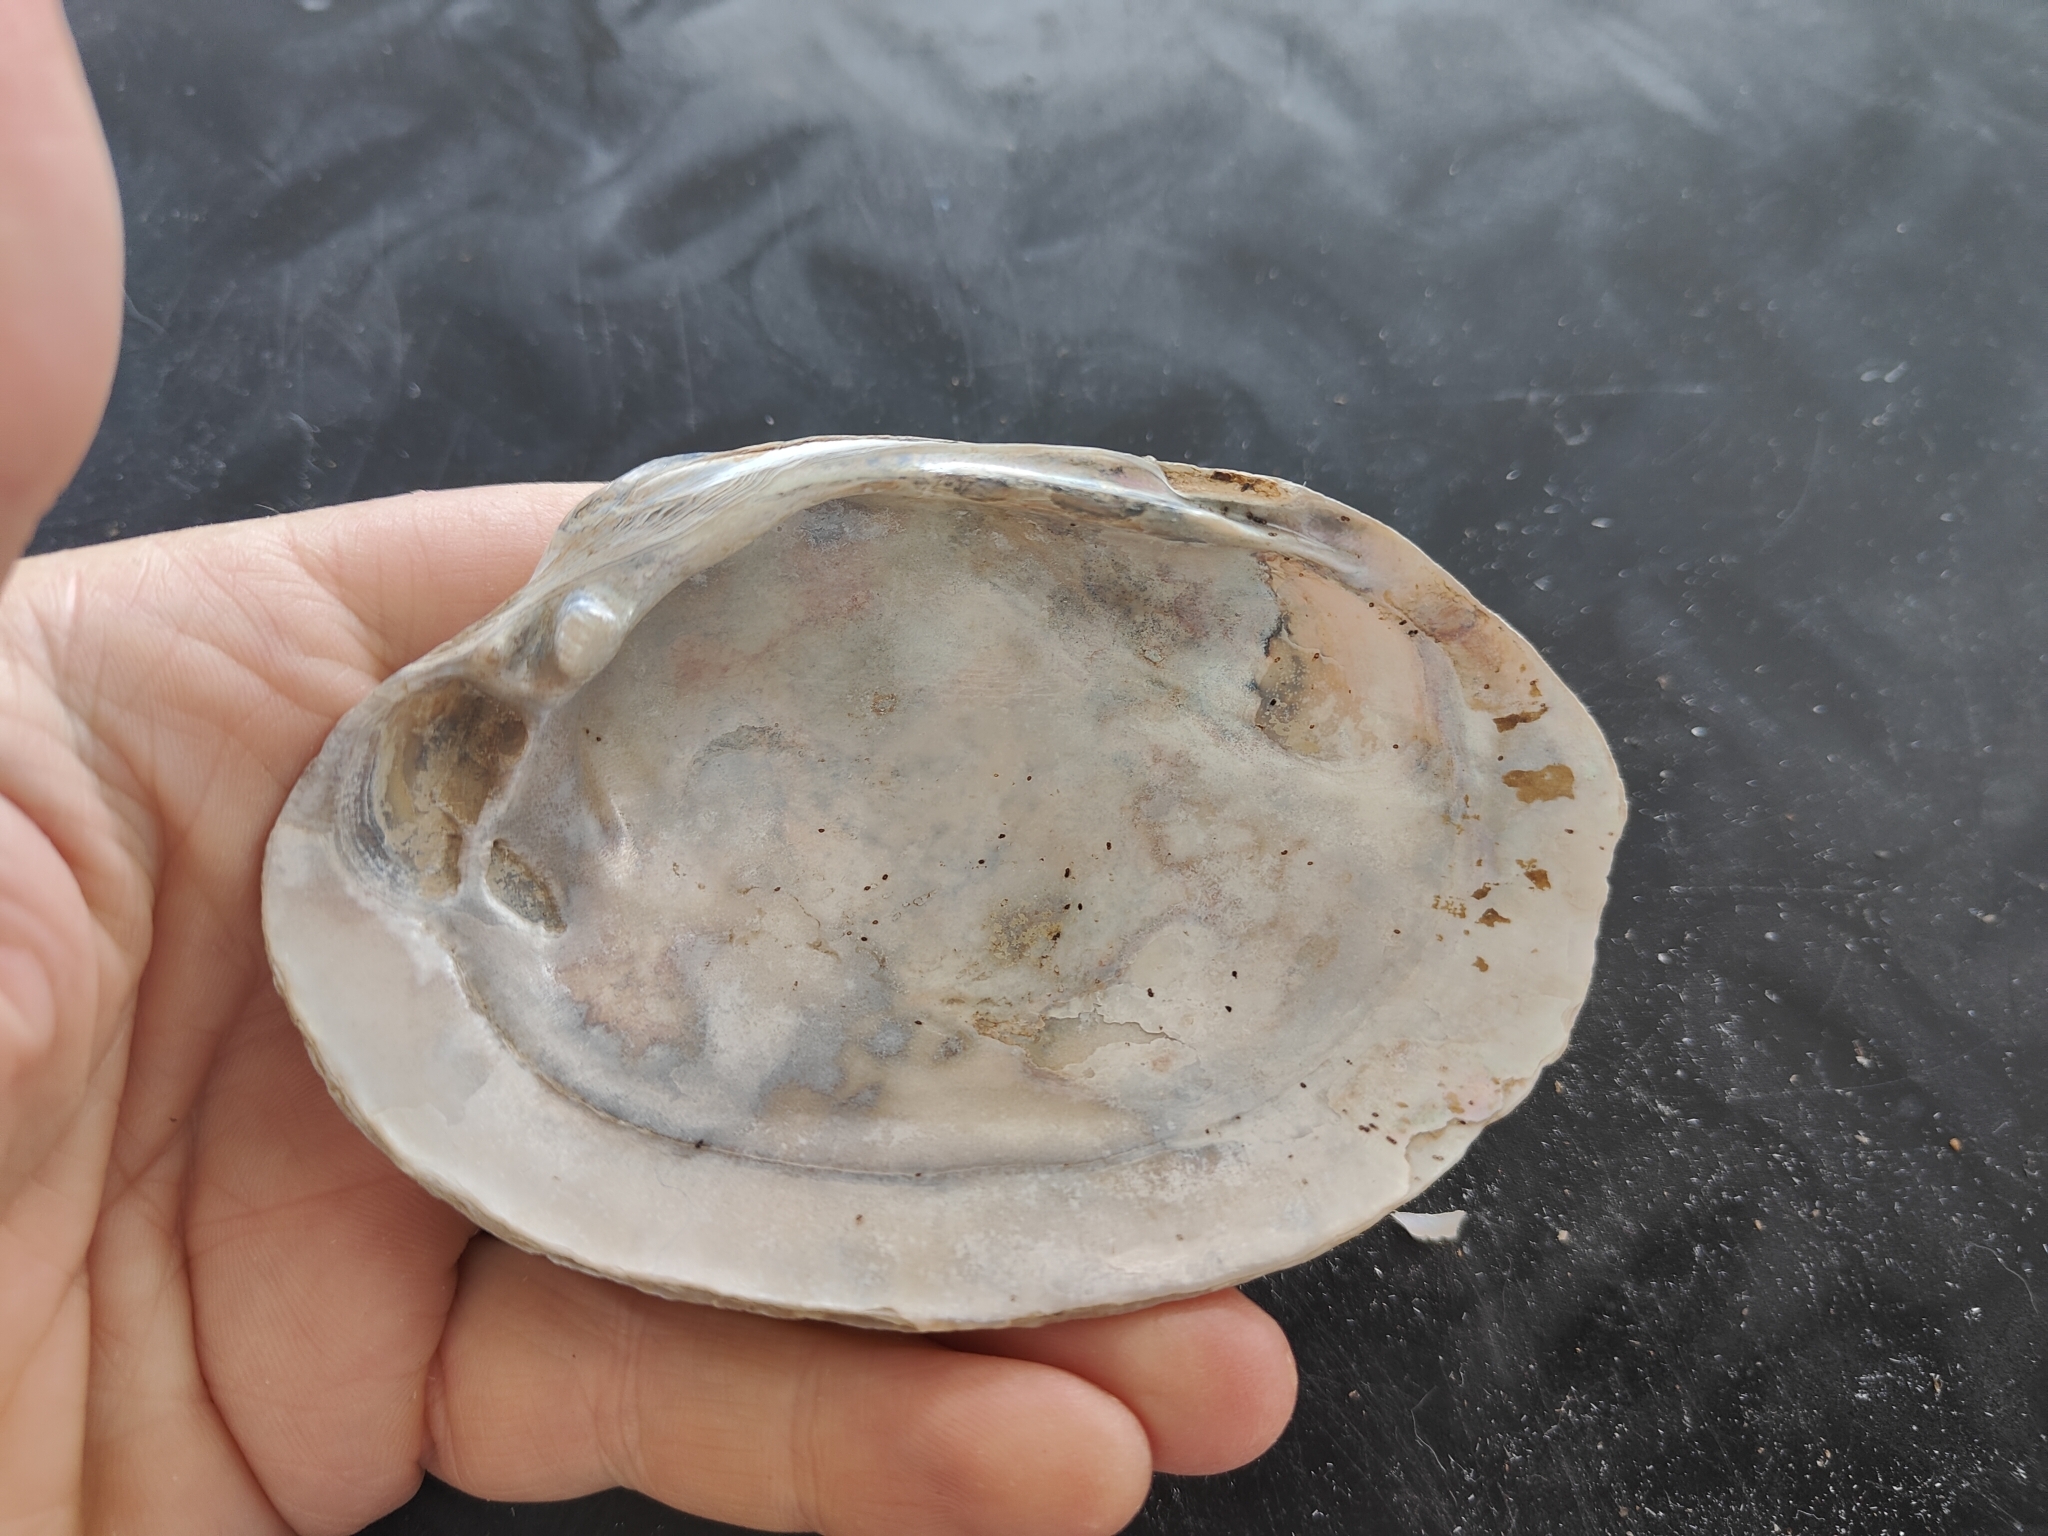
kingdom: Animalia
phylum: Mollusca
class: Bivalvia
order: Unionida
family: Unionidae
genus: Lampsilis
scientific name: Lampsilis cardium
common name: Plain pocketbook
